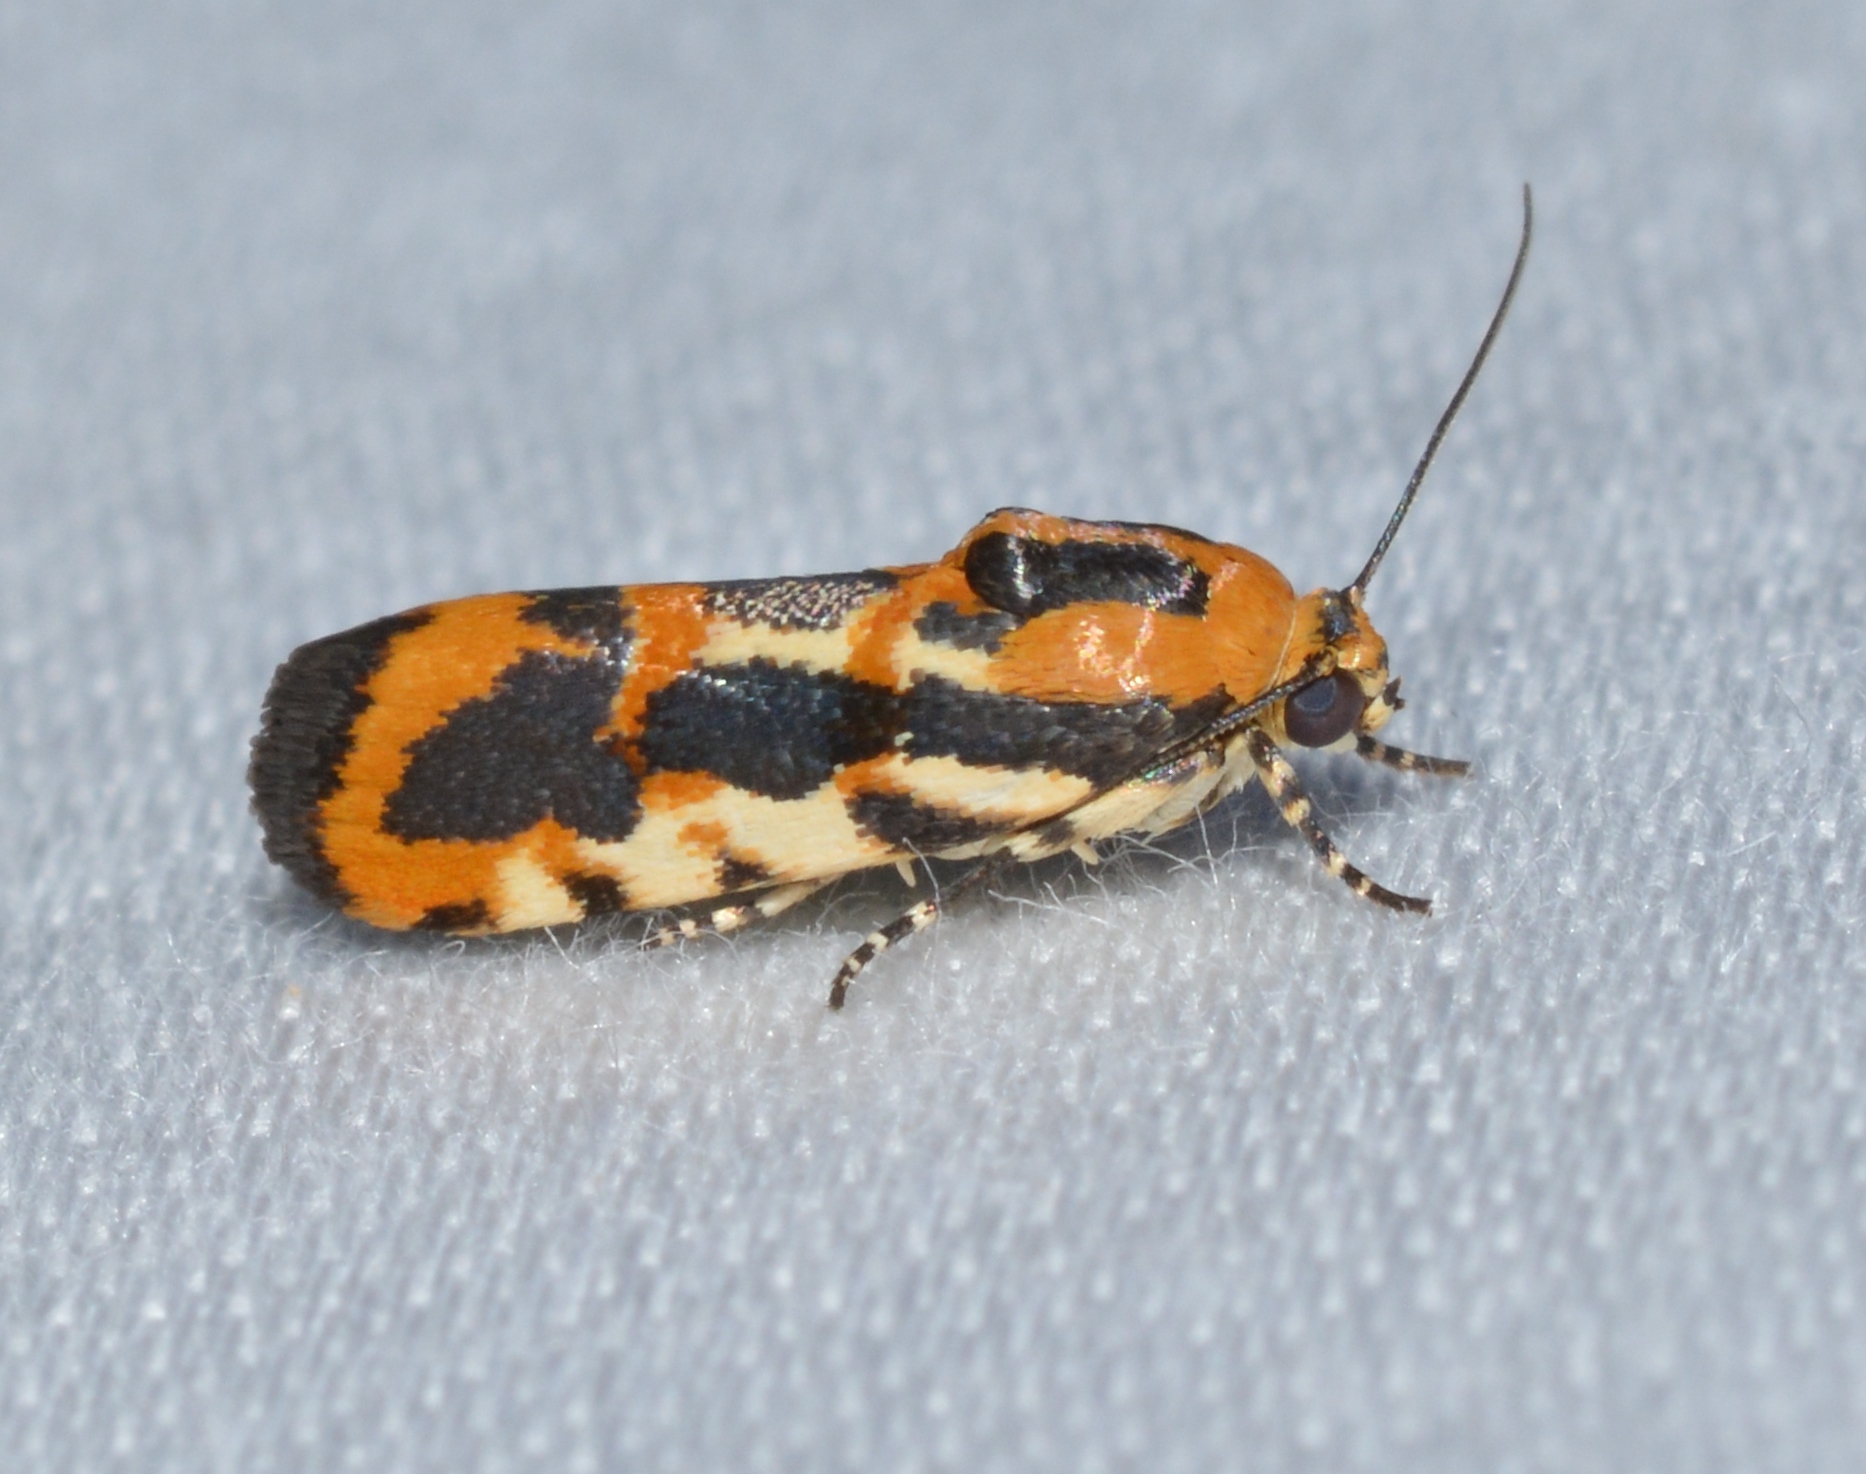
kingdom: Animalia
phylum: Arthropoda
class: Insecta
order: Lepidoptera
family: Noctuidae
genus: Acontia
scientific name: Acontia leo
